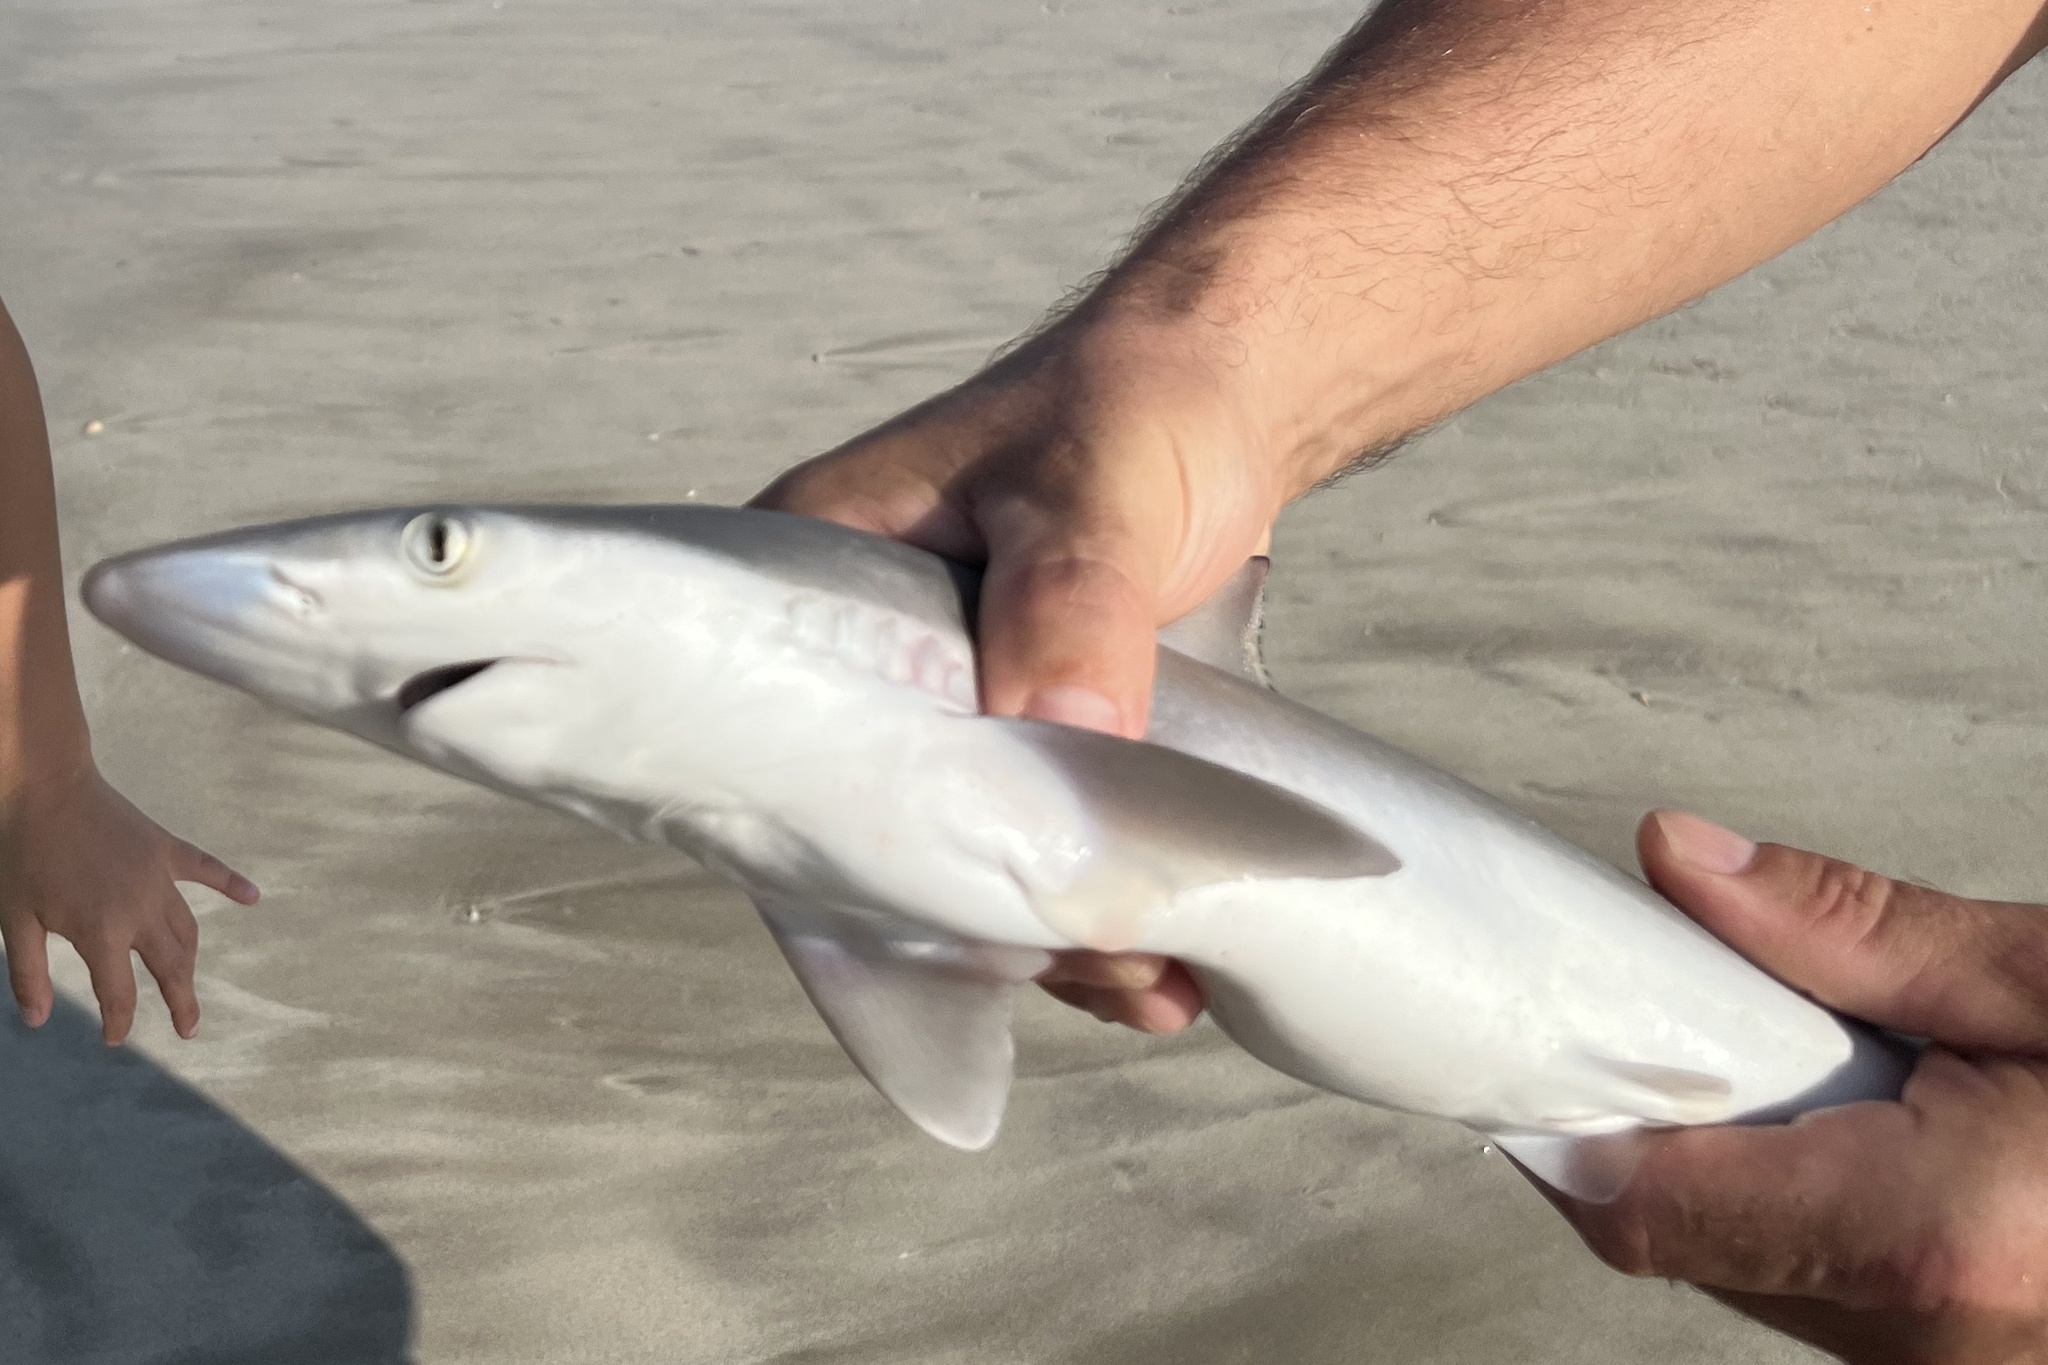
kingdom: Animalia
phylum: Chordata
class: Elasmobranchii
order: Carcharhiniformes
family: Carcharhinidae
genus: Rhizoprionodon
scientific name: Rhizoprionodon acutus
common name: Milk shark
